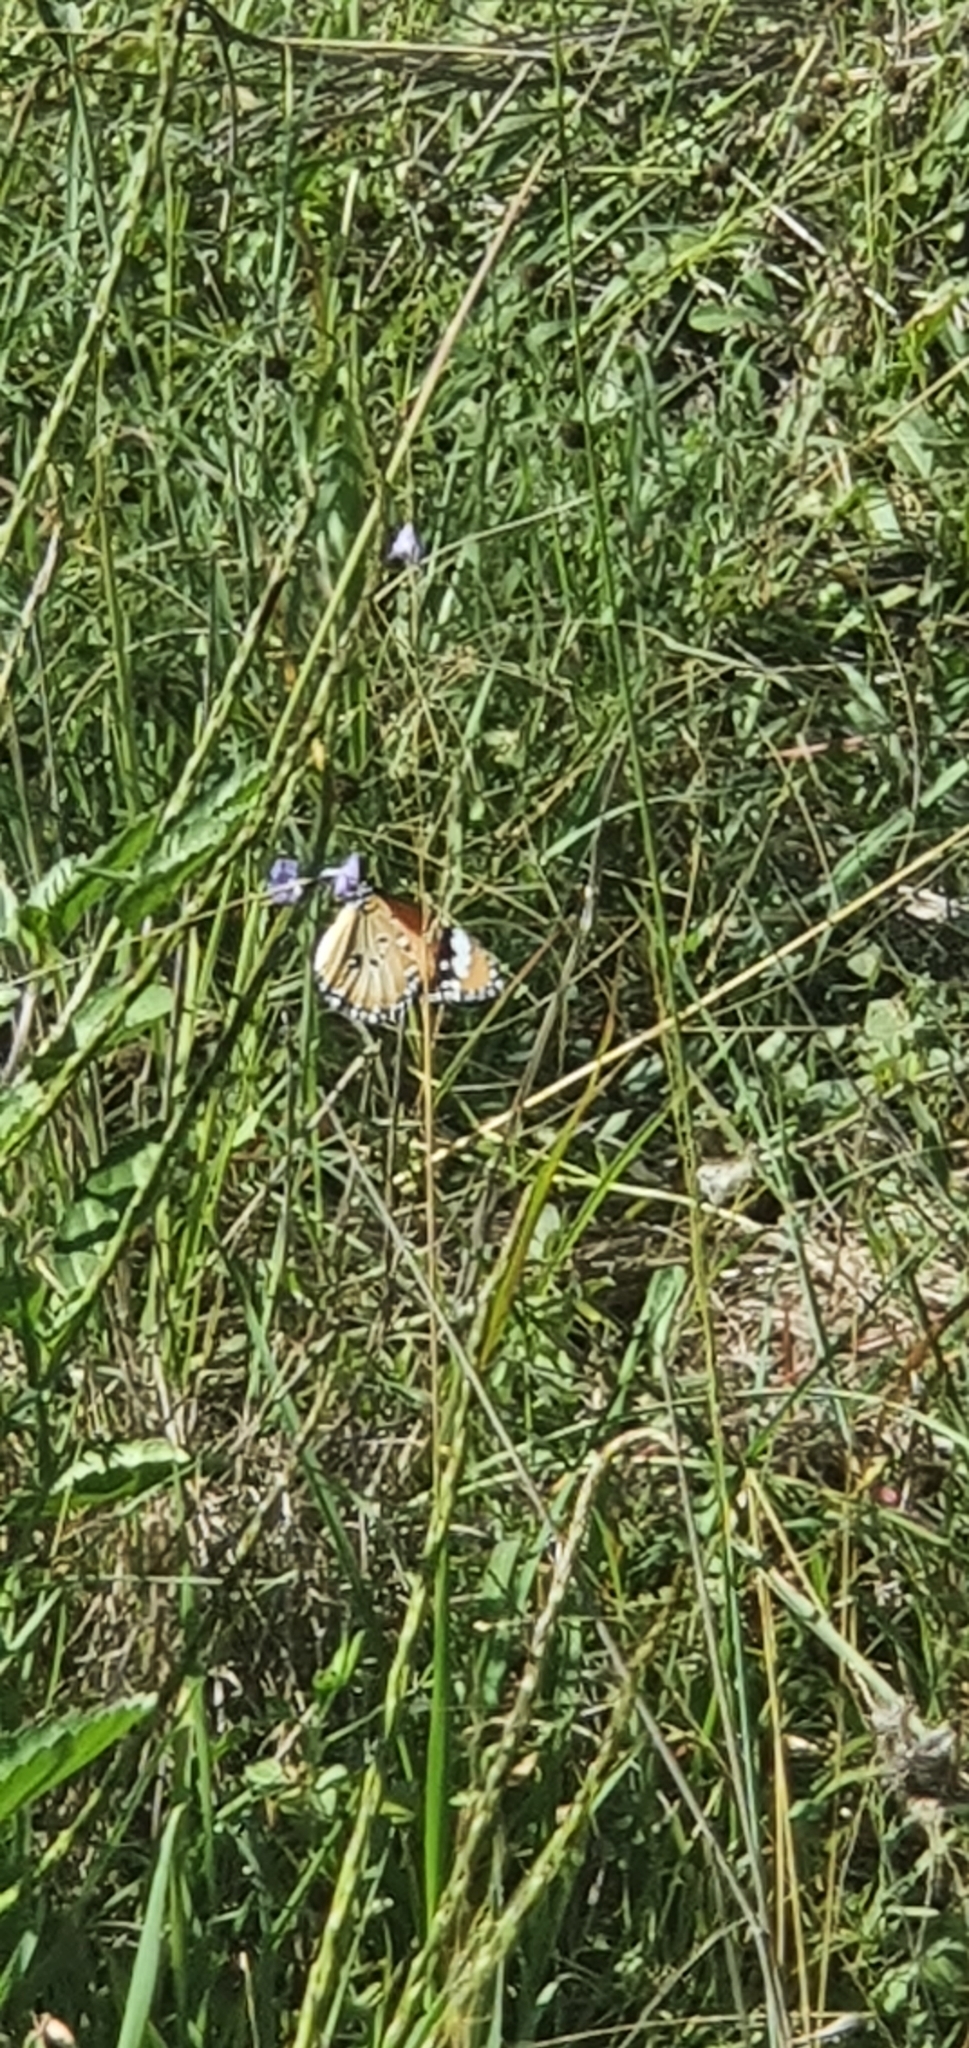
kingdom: Animalia
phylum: Arthropoda
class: Insecta
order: Lepidoptera
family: Nymphalidae
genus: Danaus
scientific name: Danaus chrysippus
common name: Plain tiger
